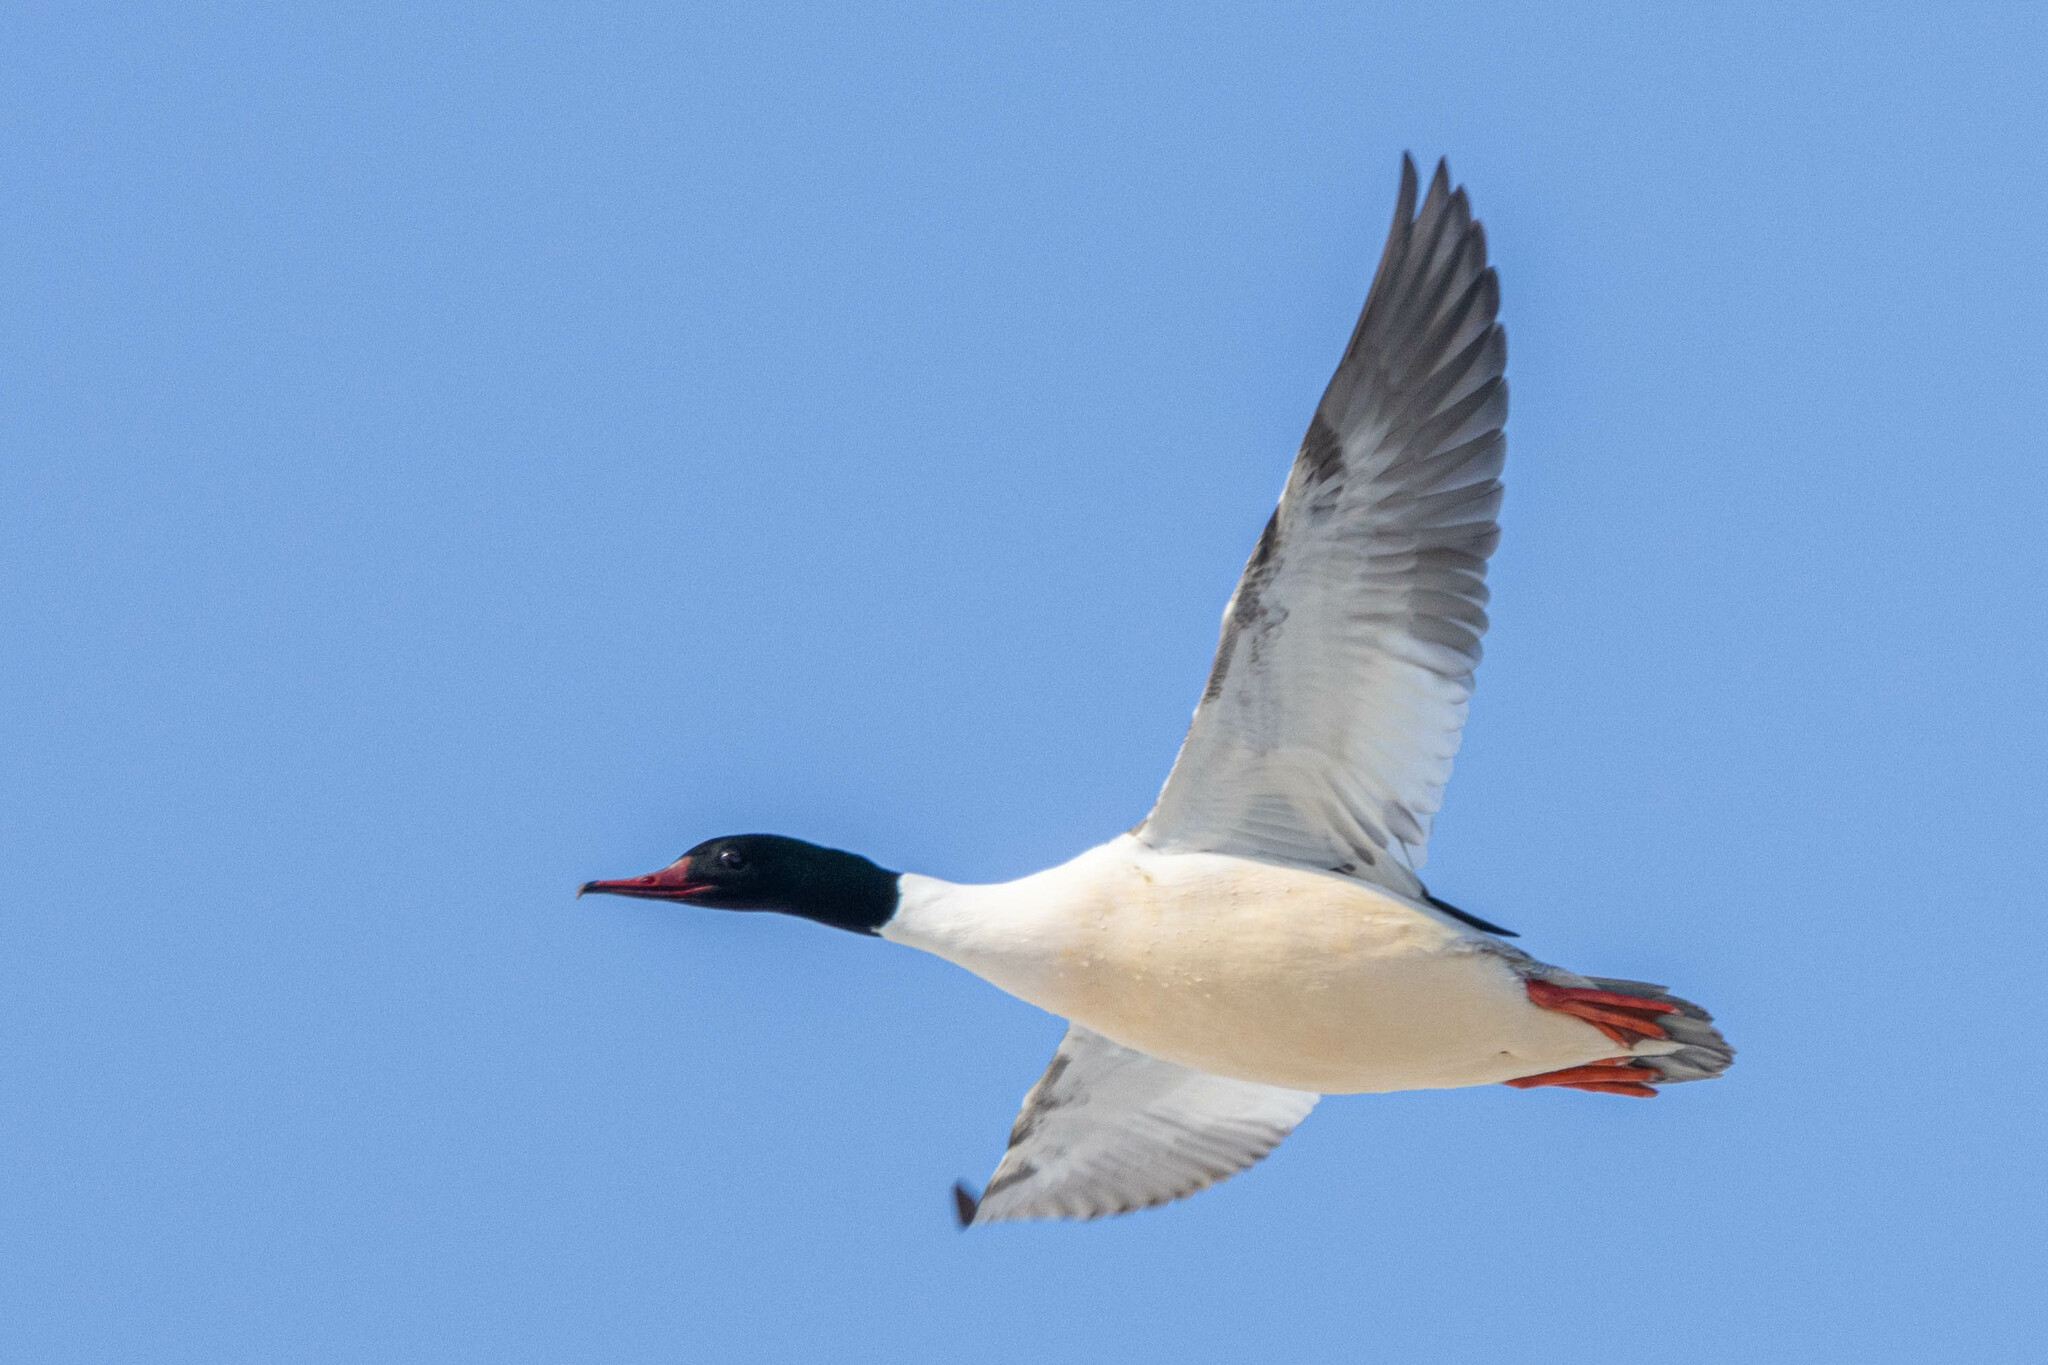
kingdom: Animalia
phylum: Chordata
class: Aves
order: Anseriformes
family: Anatidae
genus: Mergus
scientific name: Mergus merganser
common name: Common merganser
